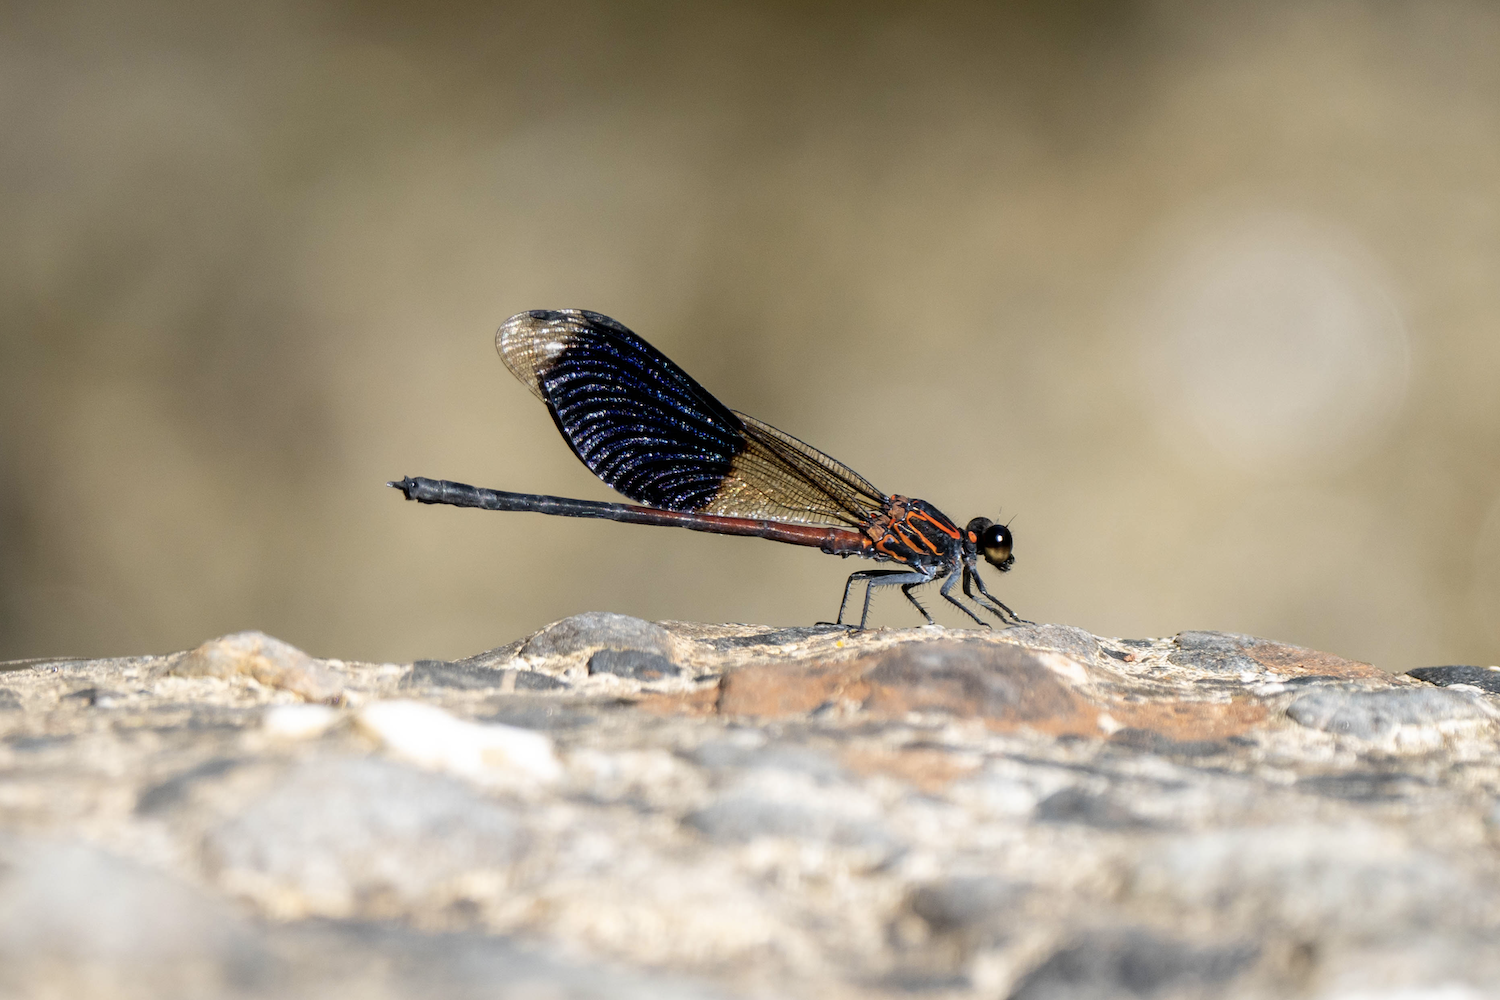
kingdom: Animalia
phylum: Arthropoda
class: Insecta
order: Odonata
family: Euphaeidae
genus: Euphaea
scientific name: Euphaea formosa
